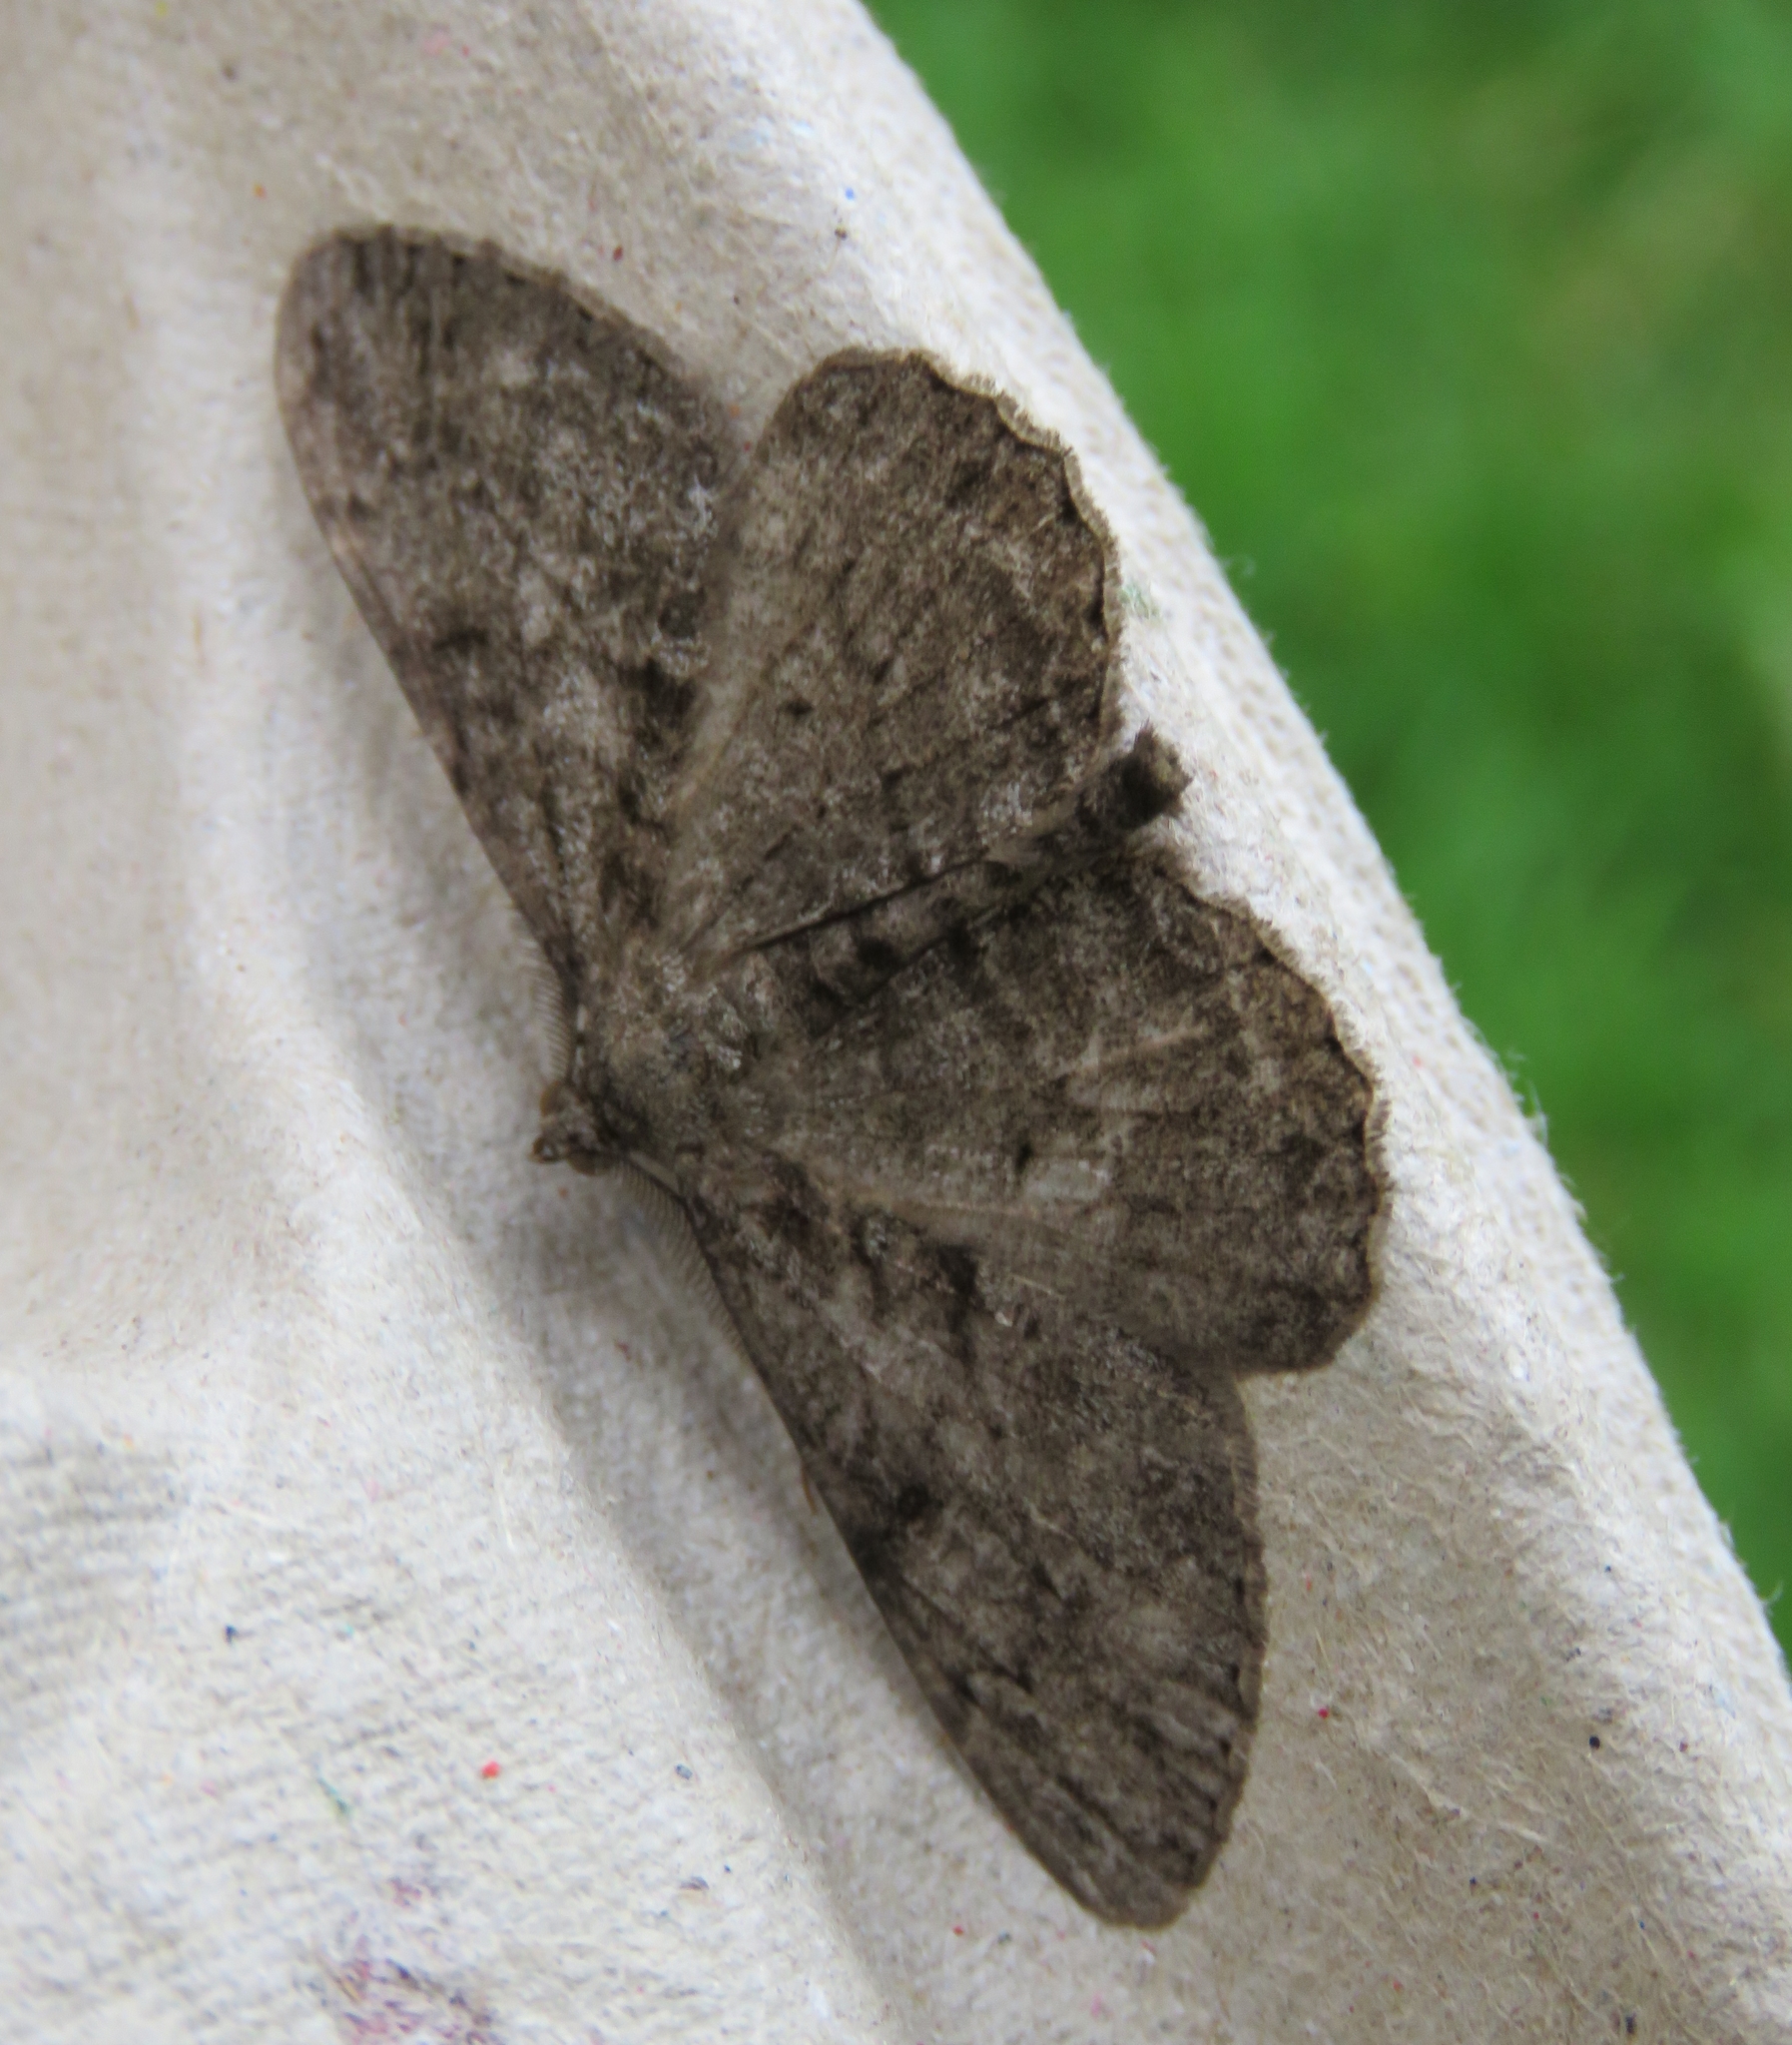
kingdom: Animalia
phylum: Arthropoda
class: Insecta
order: Lepidoptera
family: Geometridae
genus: Peribatodes
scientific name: Peribatodes rhomboidaria
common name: Willow beauty
